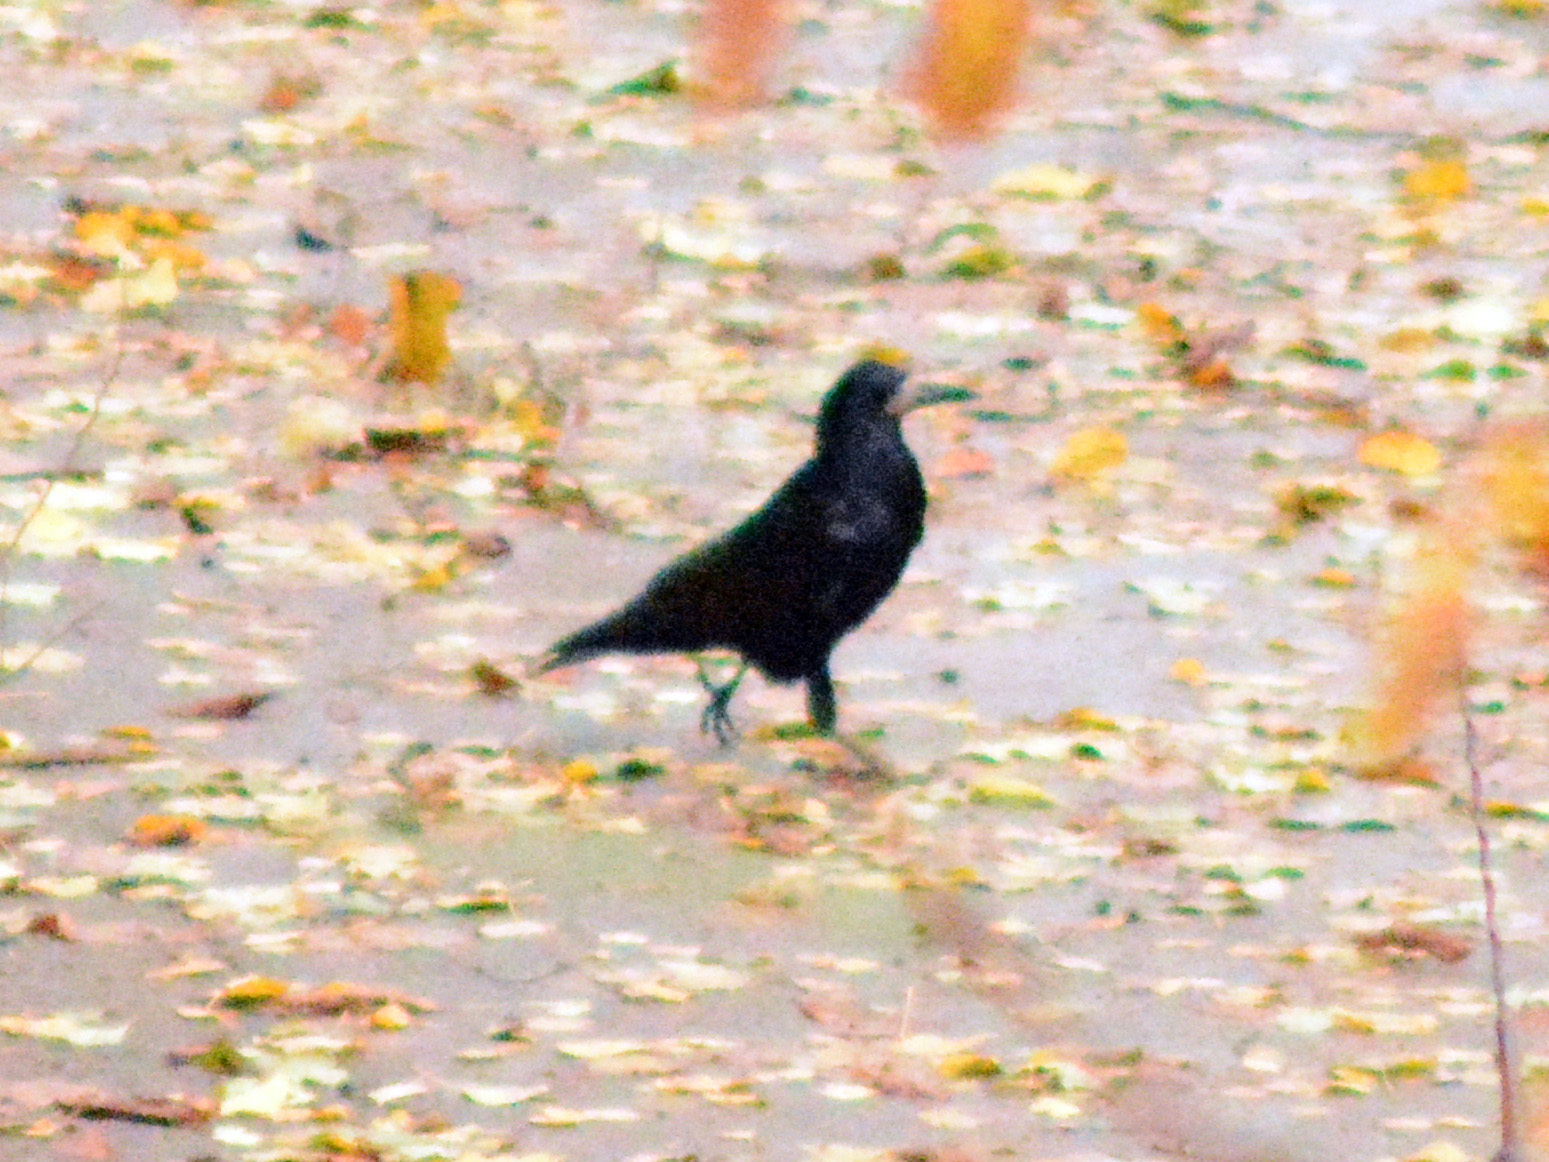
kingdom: Animalia
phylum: Chordata
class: Aves
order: Passeriformes
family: Corvidae
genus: Corvus
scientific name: Corvus frugilegus
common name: Rook
